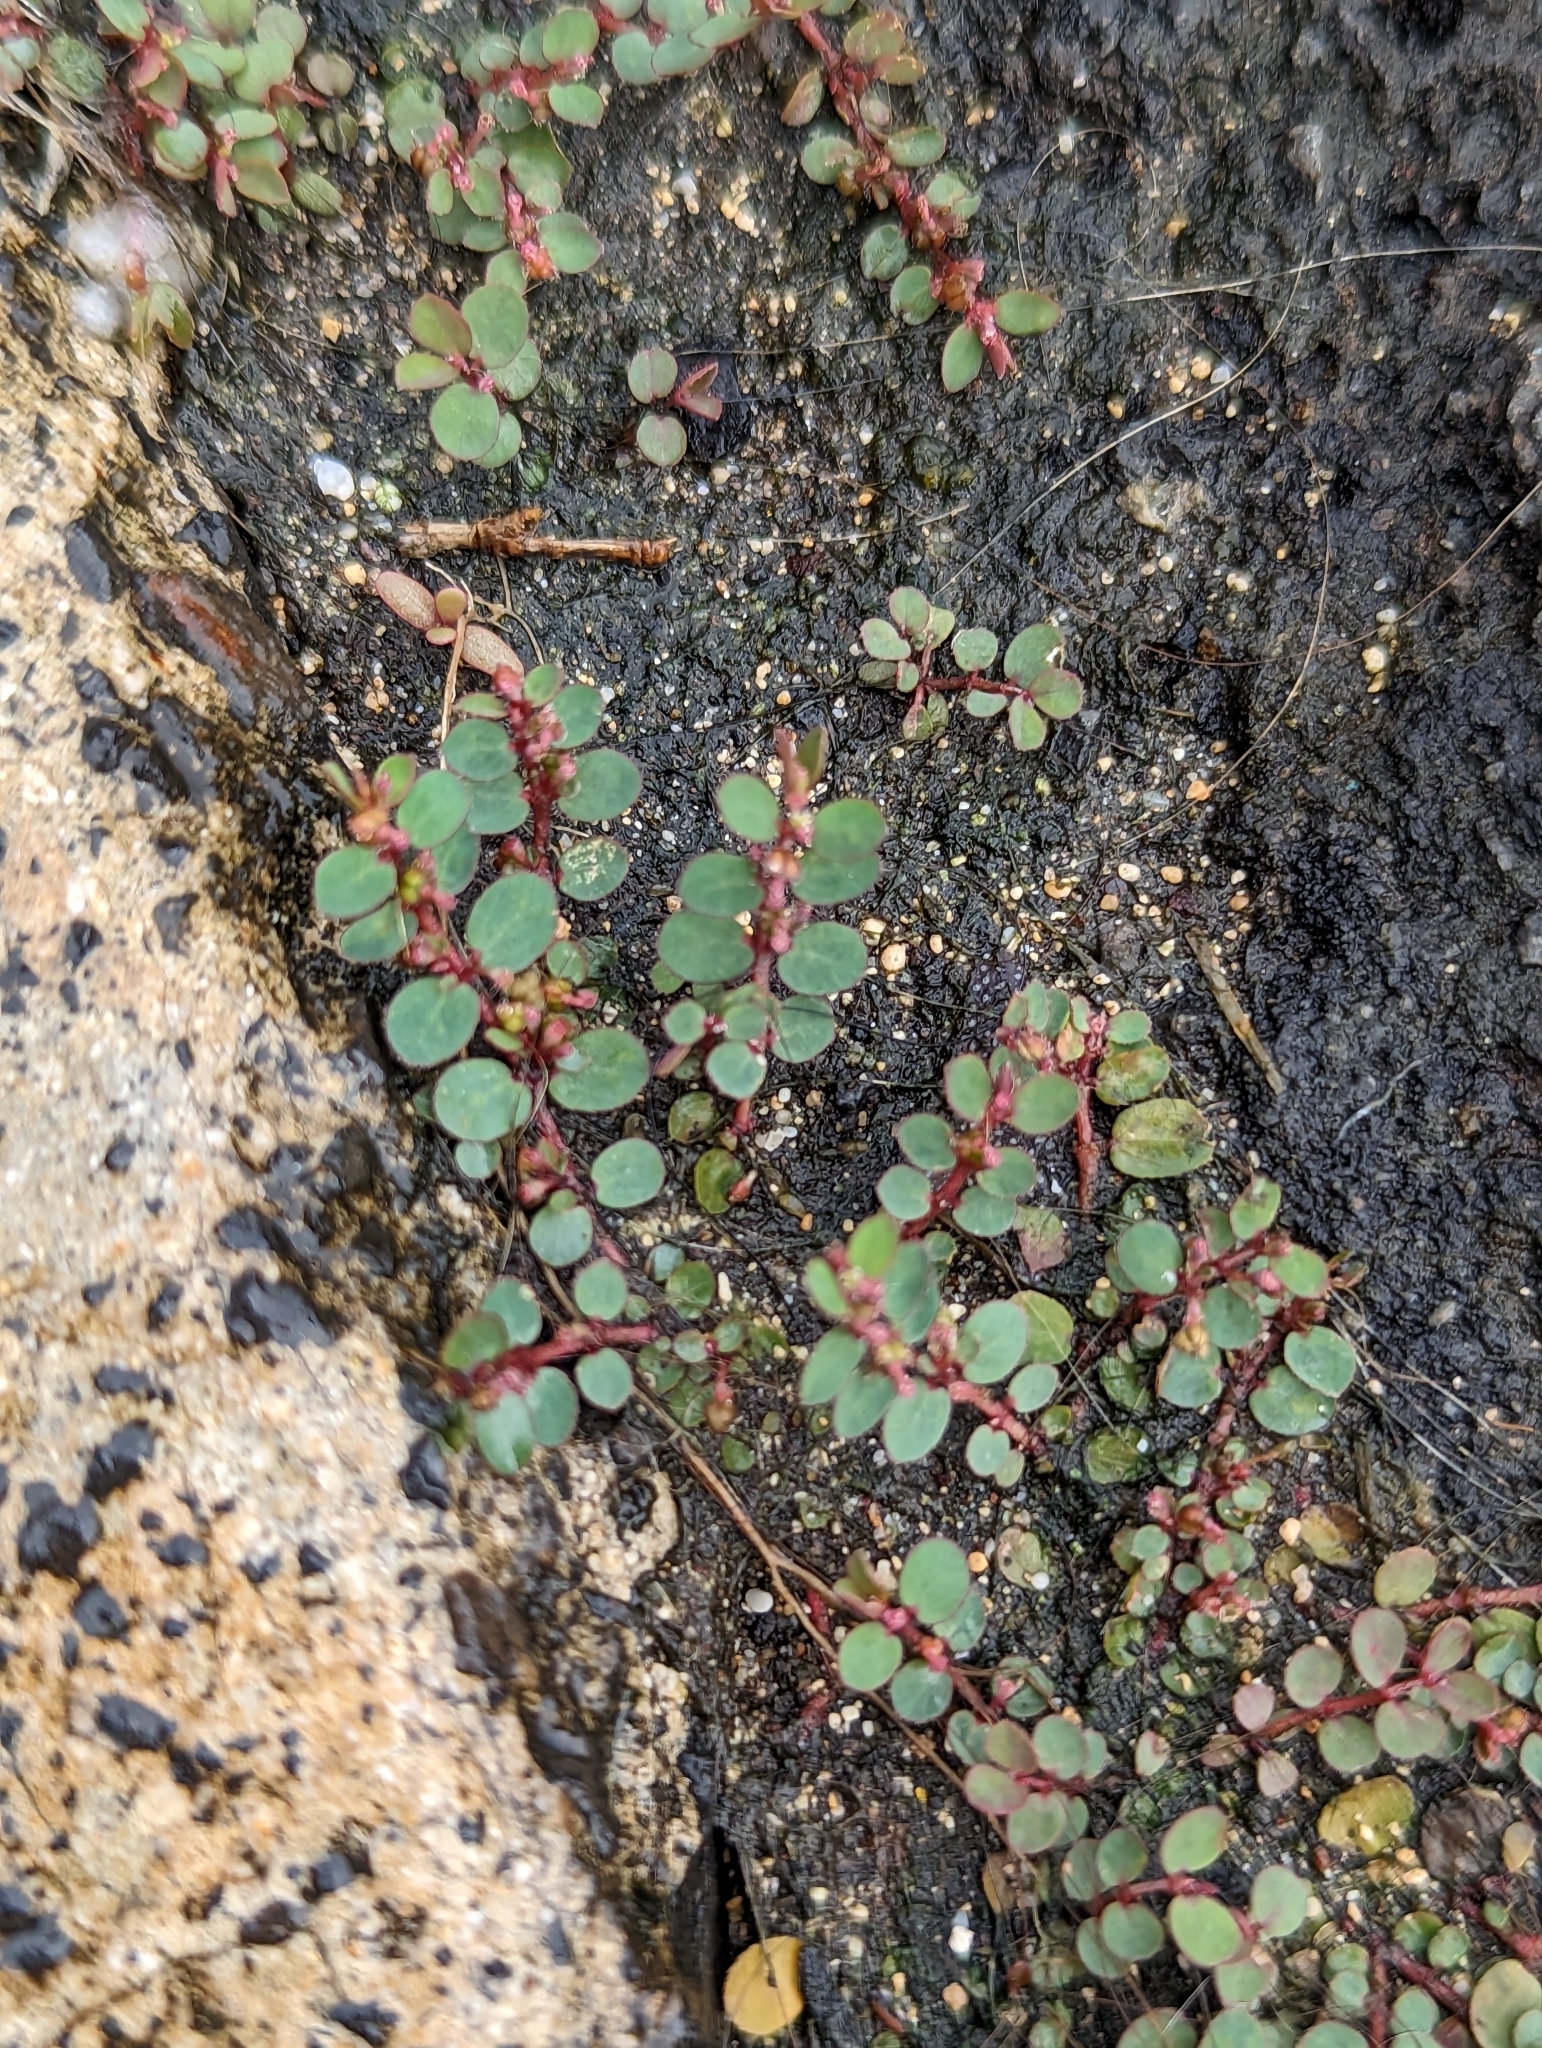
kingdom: Plantae
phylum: Tracheophyta
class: Magnoliopsida
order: Malpighiales
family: Euphorbiaceae
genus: Euphorbia
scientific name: Euphorbia prostrata
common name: Prostrate sandmat
